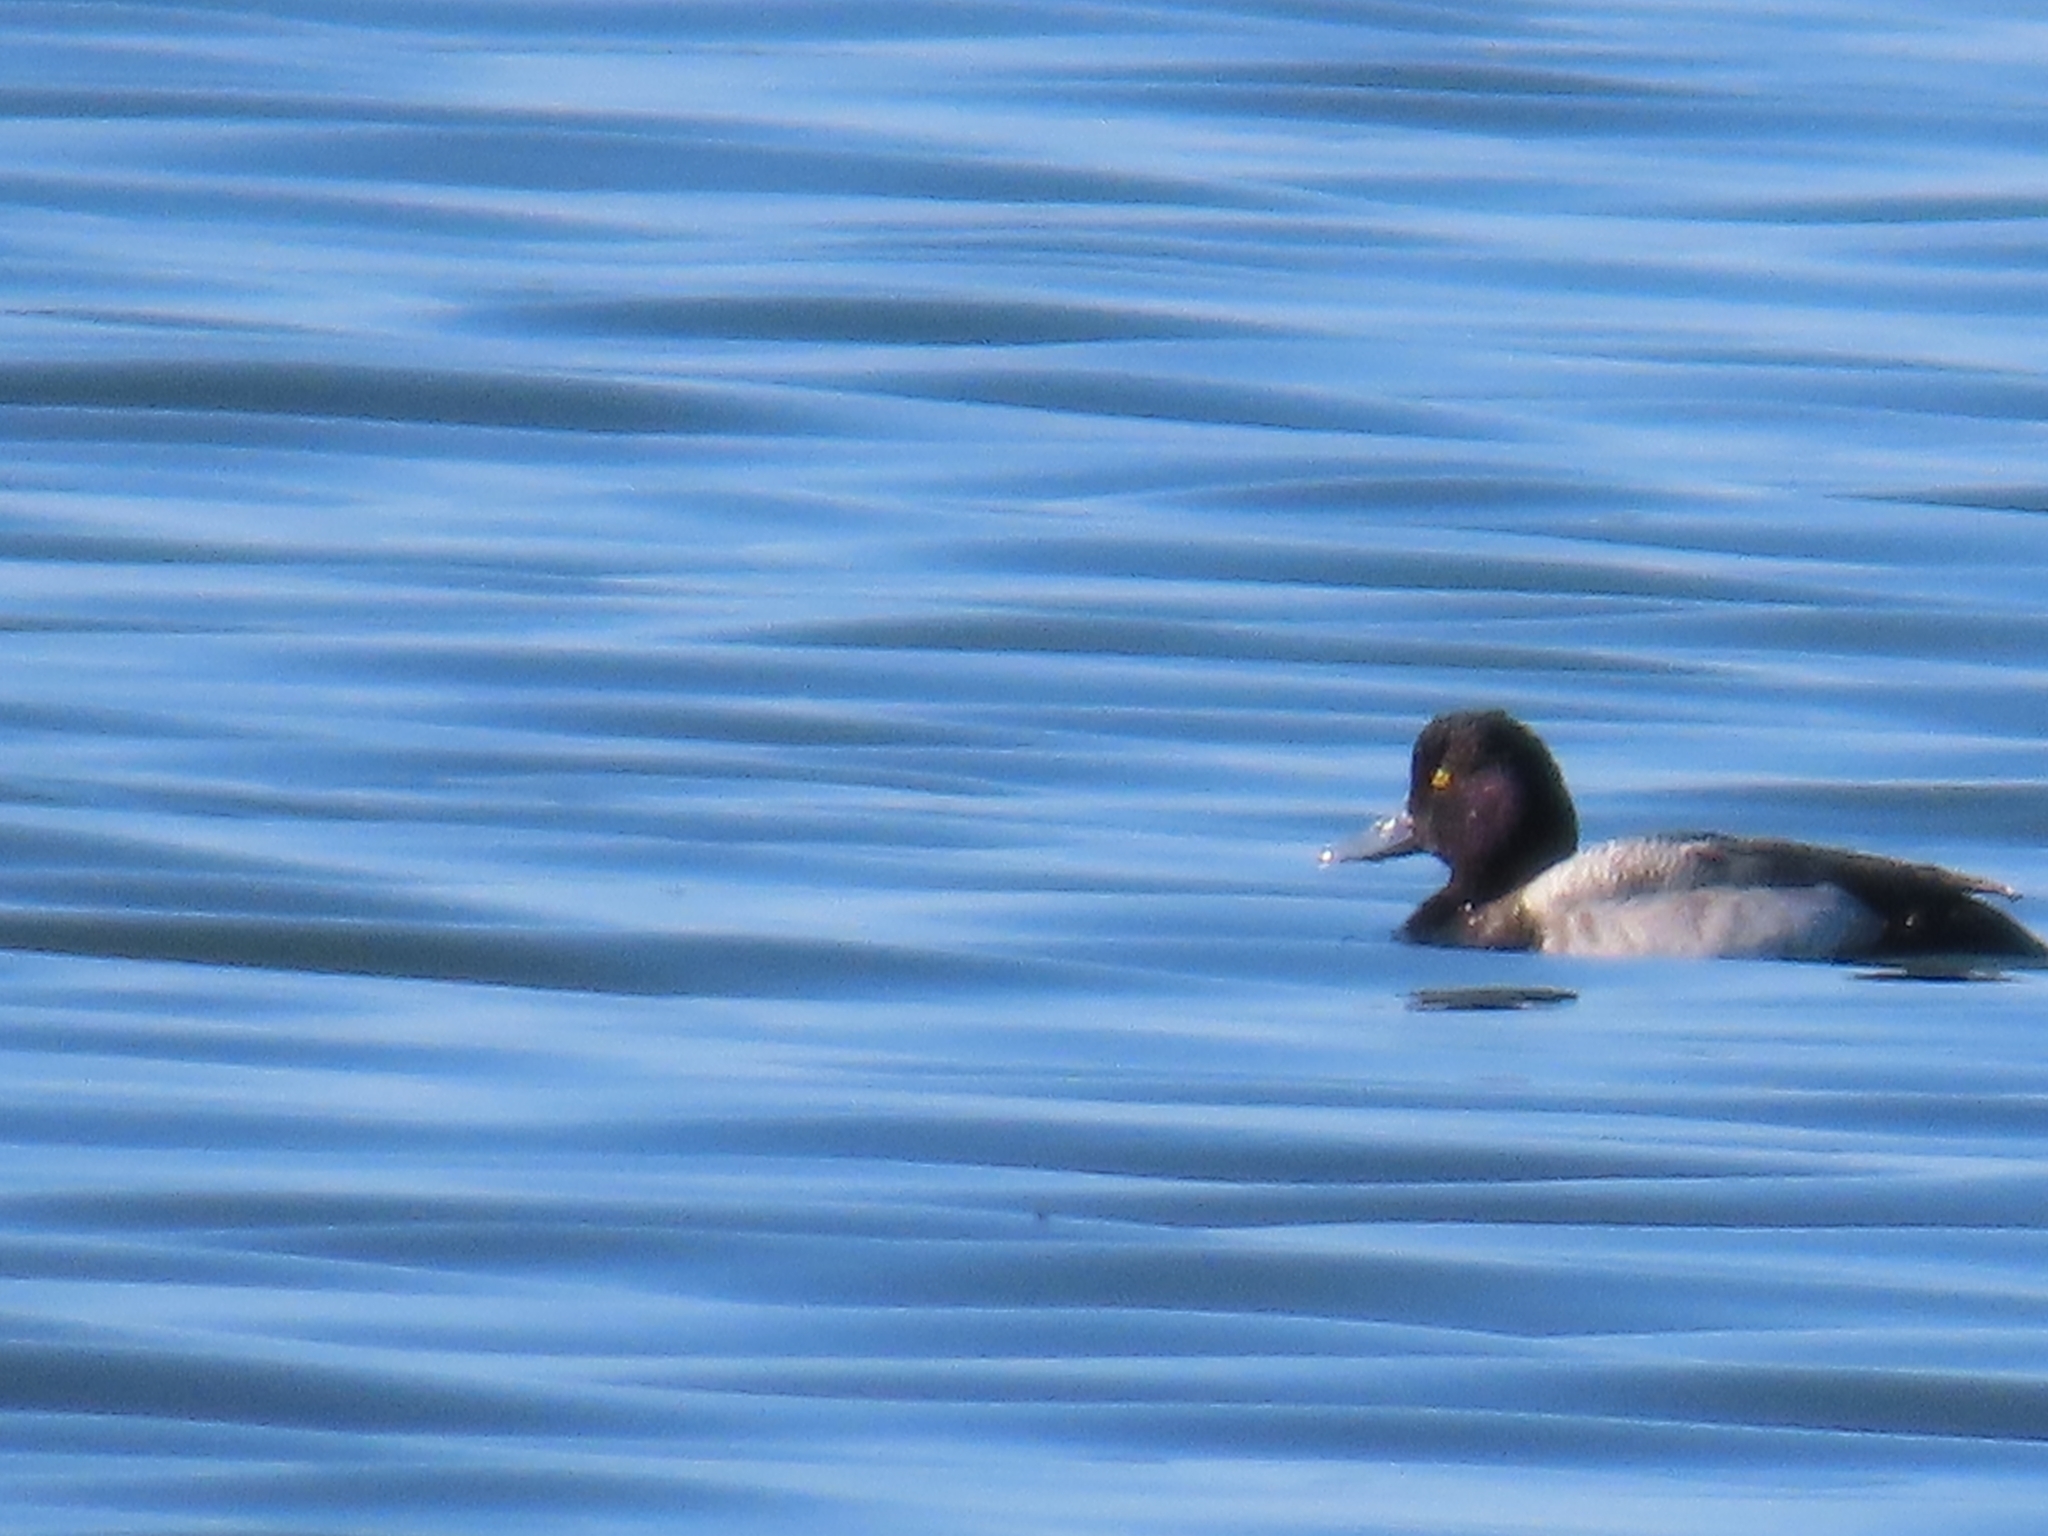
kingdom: Animalia
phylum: Chordata
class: Aves
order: Anseriformes
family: Anatidae
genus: Aythya
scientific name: Aythya affinis
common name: Lesser scaup
